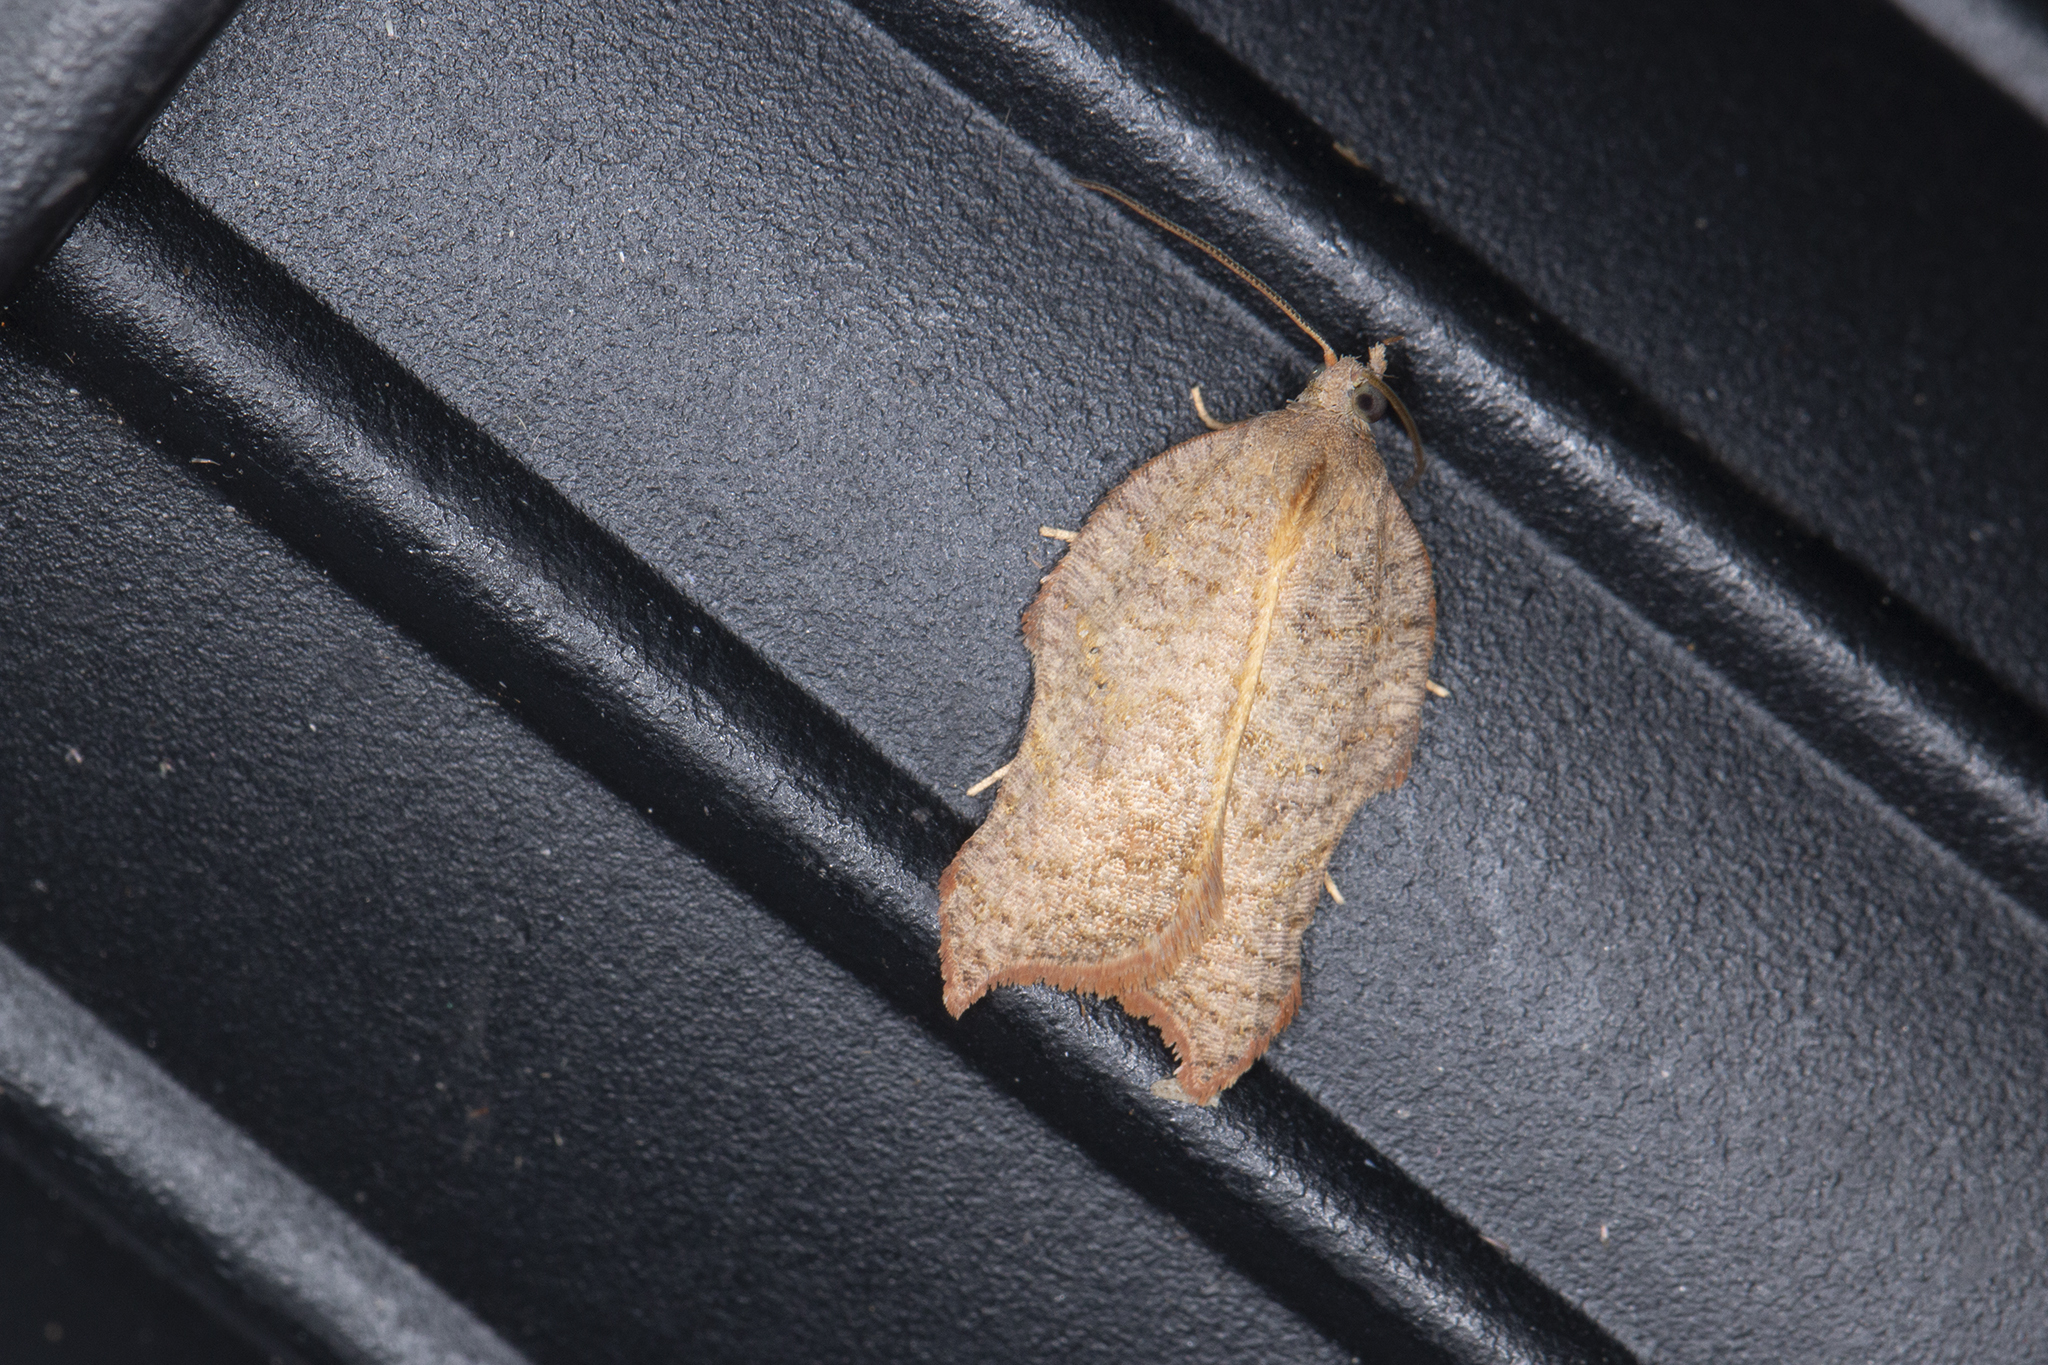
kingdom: Animalia
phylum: Arthropoda
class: Insecta
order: Lepidoptera
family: Tortricidae
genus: Acleris
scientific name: Acleris emargana
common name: Notch-wing button
